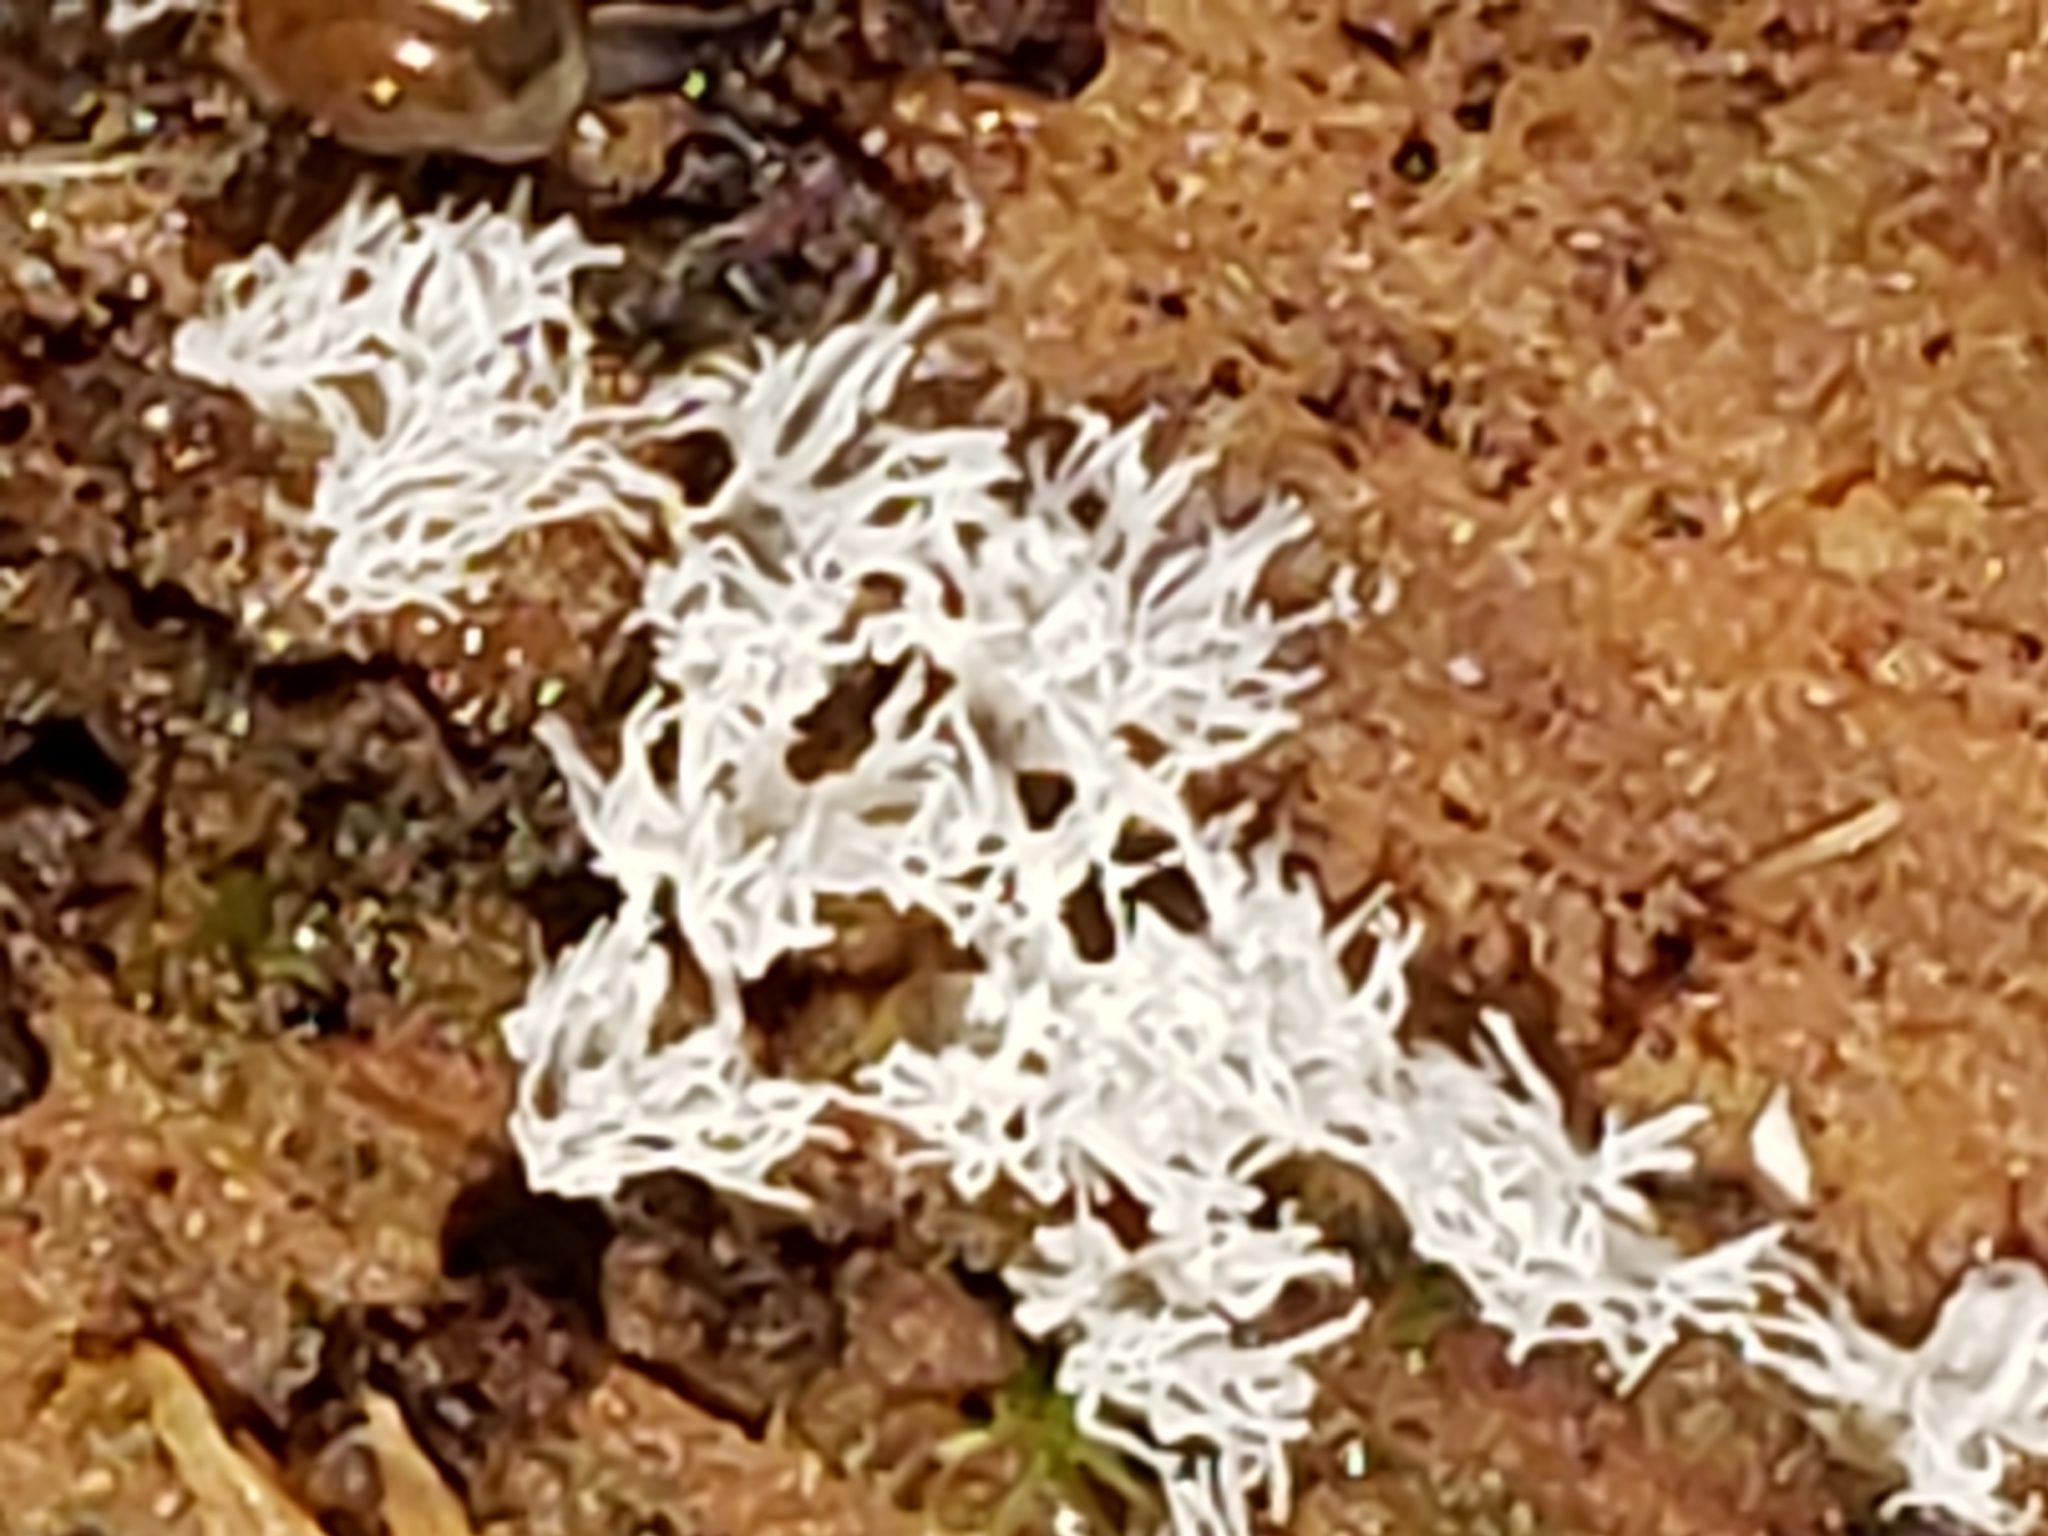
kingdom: Protozoa
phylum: Mycetozoa
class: Protosteliomycetes
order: Ceratiomyxales
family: Ceratiomyxaceae
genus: Ceratiomyxa
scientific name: Ceratiomyxa fruticulosa
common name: Honeycomb coral slime mold
